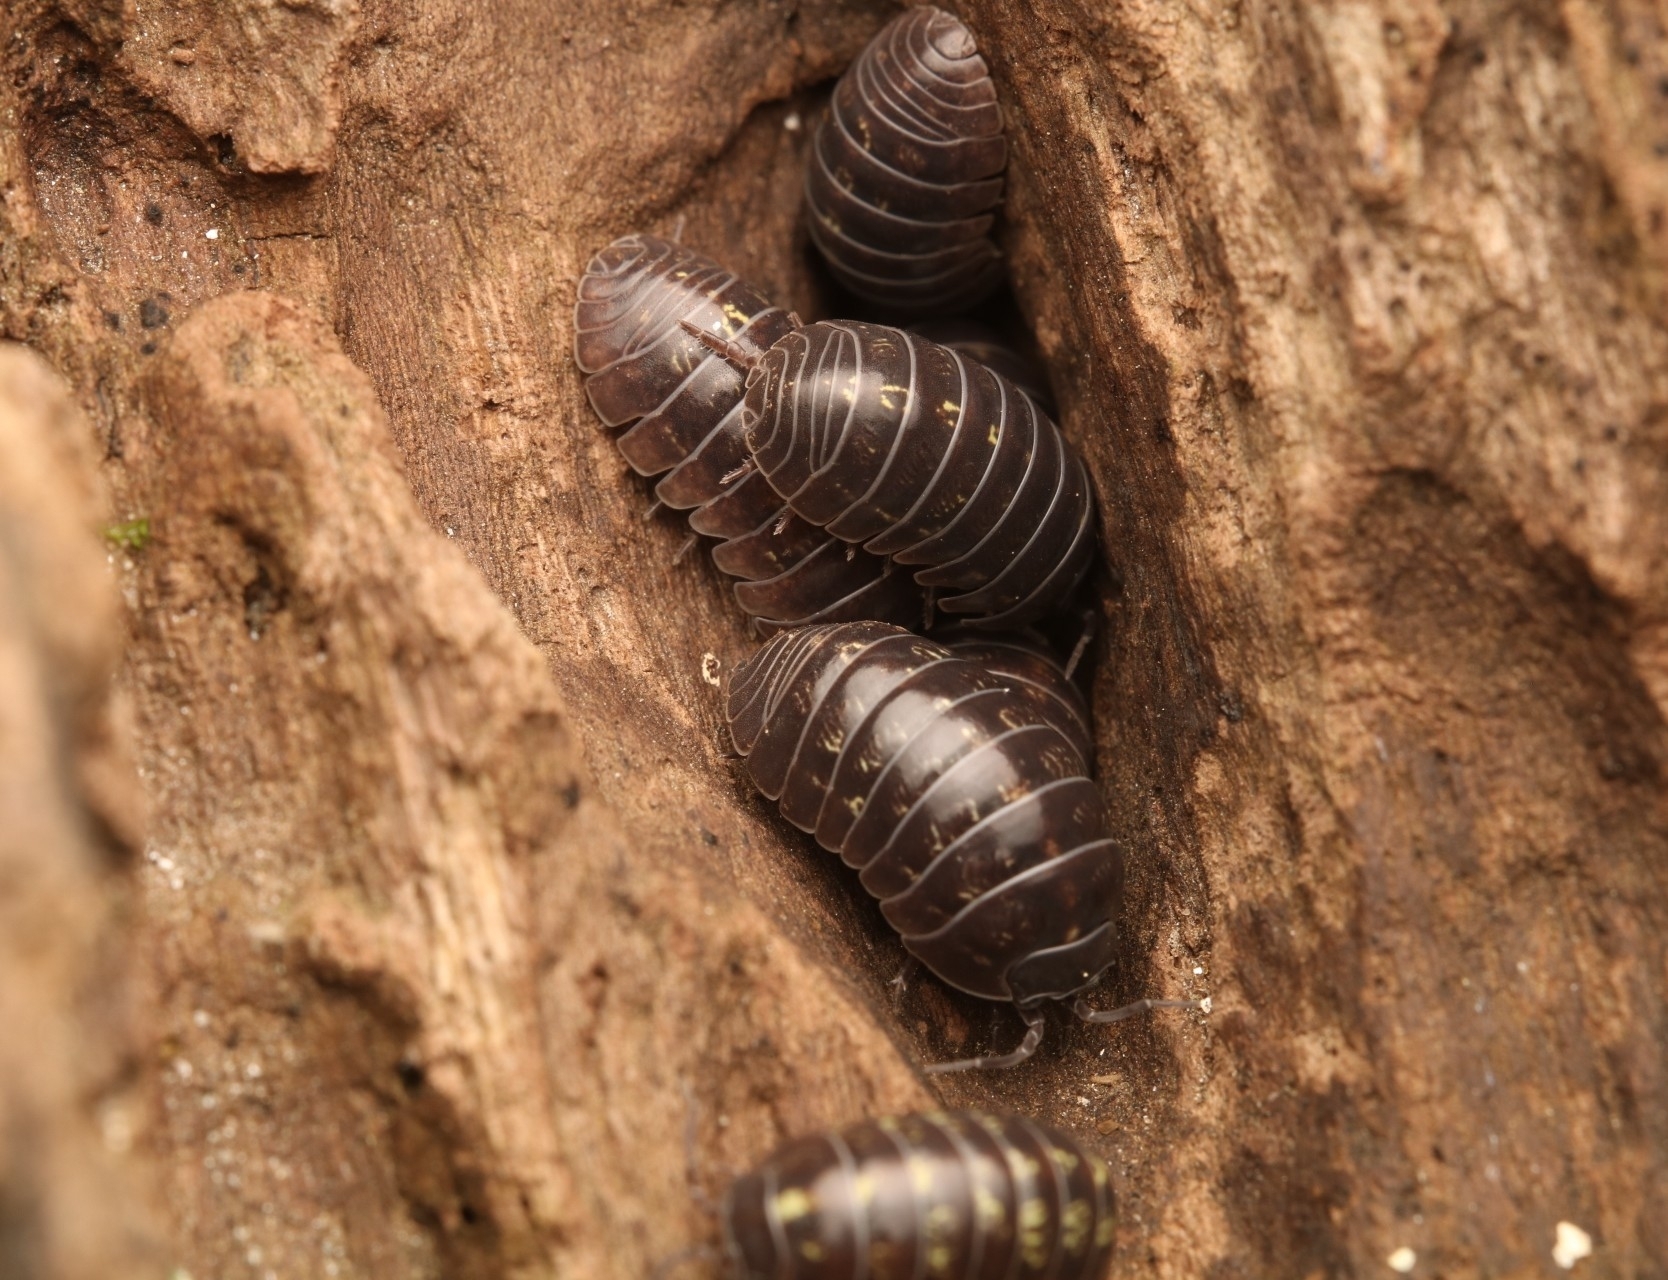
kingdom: Animalia
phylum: Arthropoda
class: Malacostraca
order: Isopoda
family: Armadillidiidae
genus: Armadillidium
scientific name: Armadillidium vulgare
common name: Common pill woodlouse
